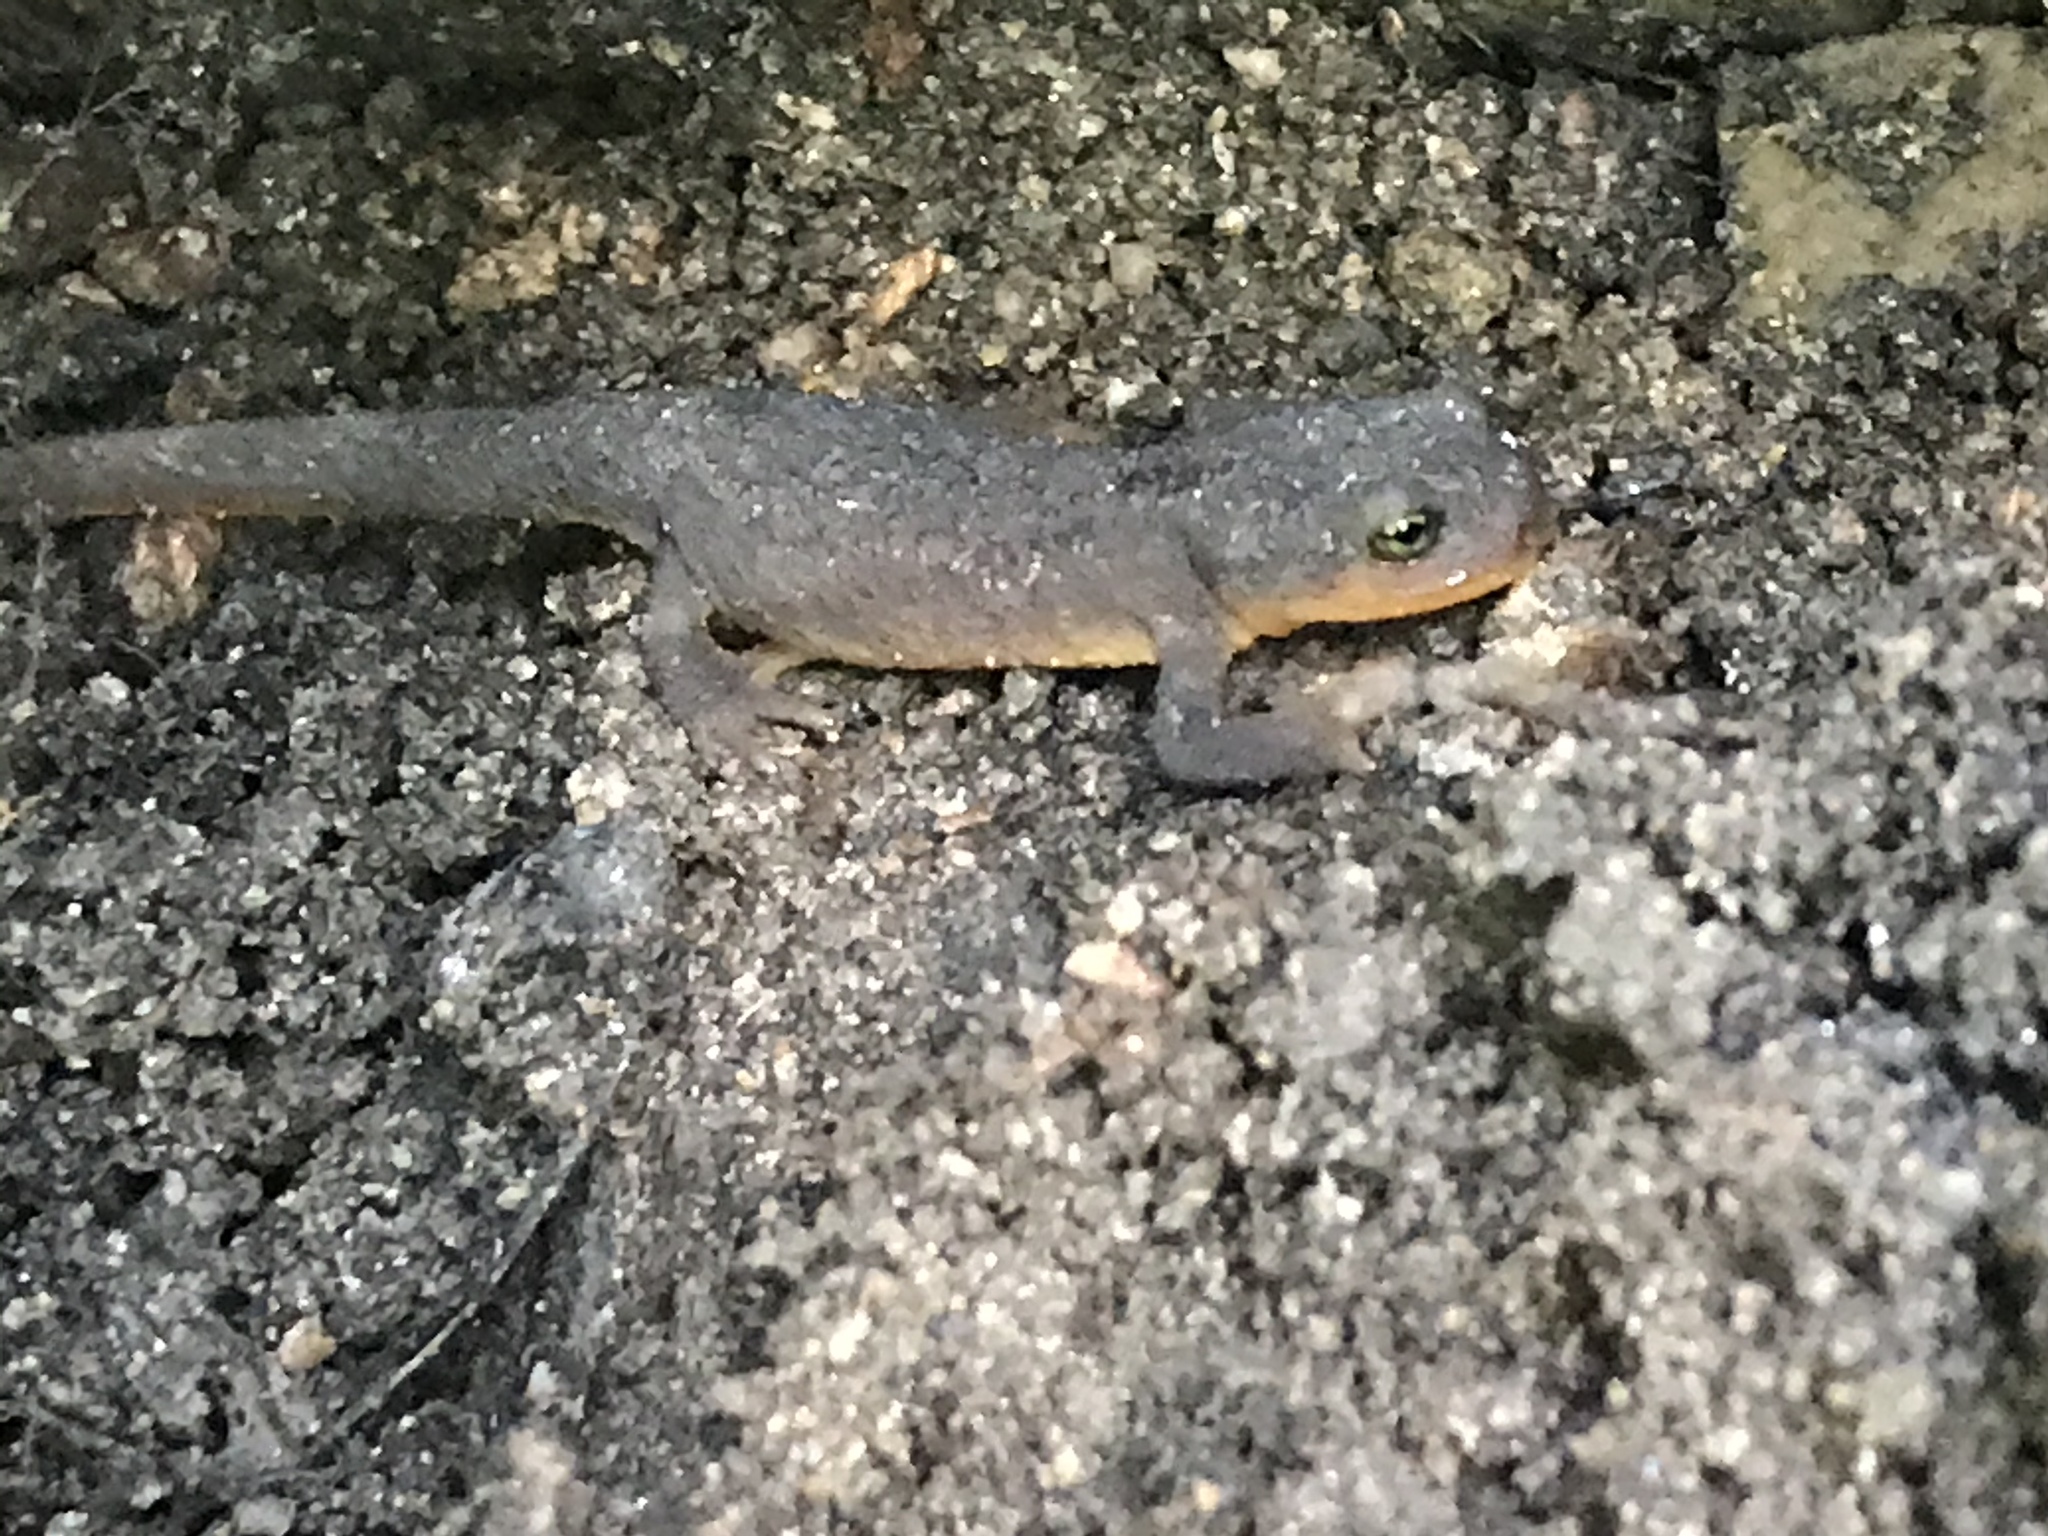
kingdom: Animalia
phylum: Chordata
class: Amphibia
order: Caudata
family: Salamandridae
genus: Taricha
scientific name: Taricha torosa
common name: California newt
